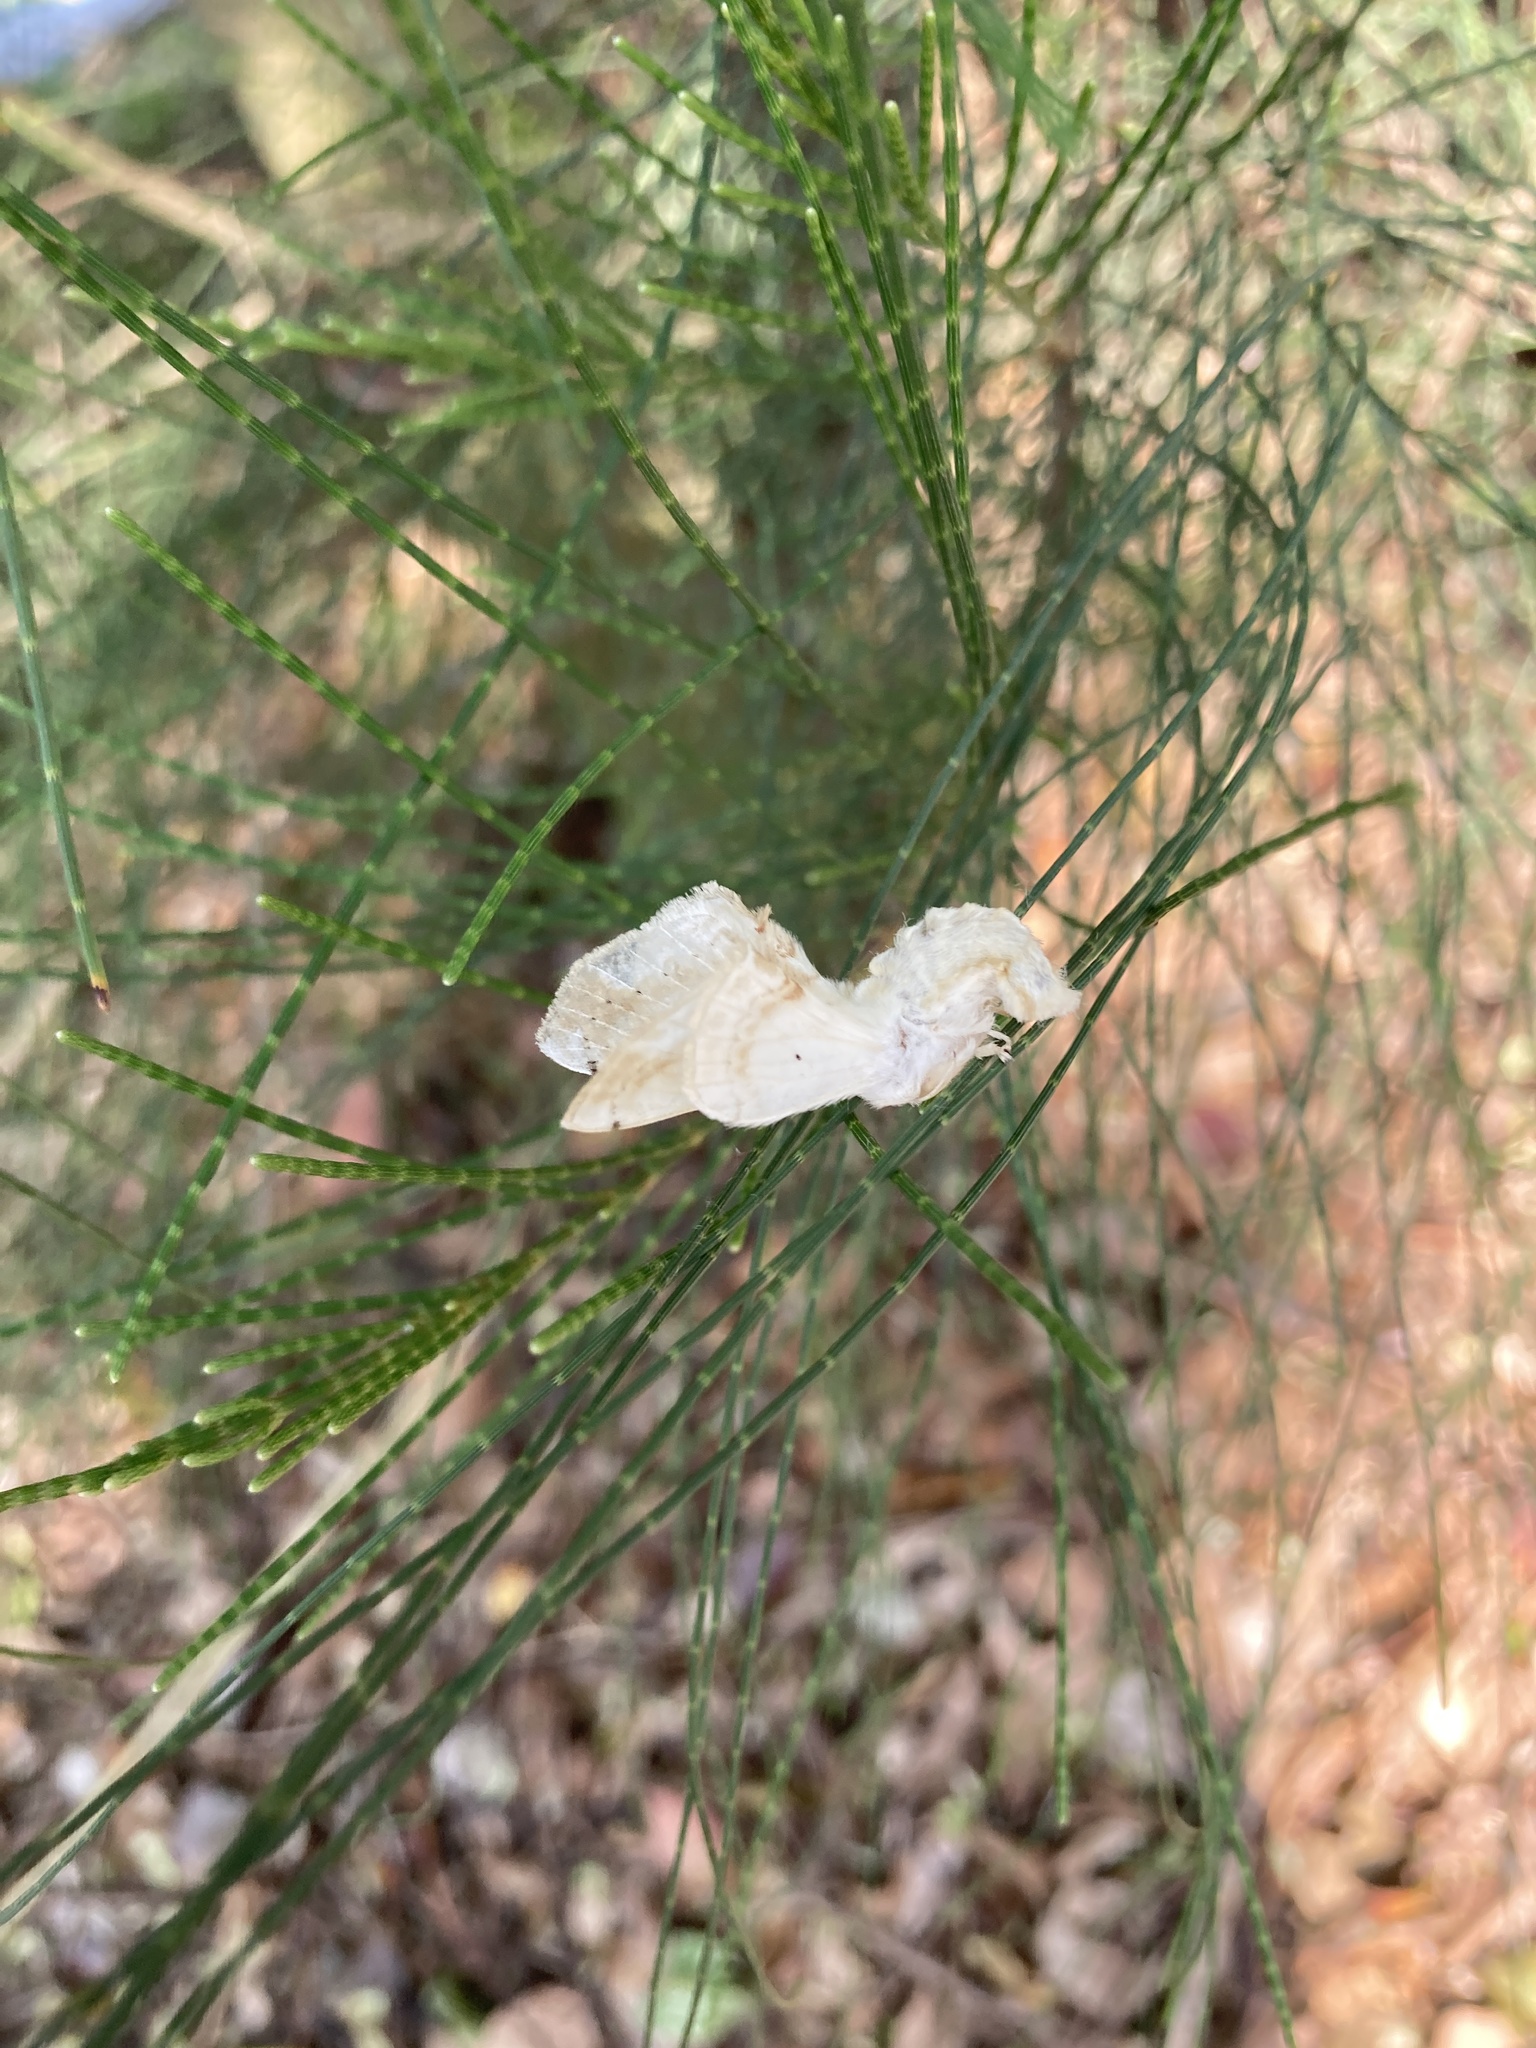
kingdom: Animalia
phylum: Arthropoda
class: Insecta
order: Lepidoptera
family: Bombycidae
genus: Ernolatia
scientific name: Ernolatia moorei
